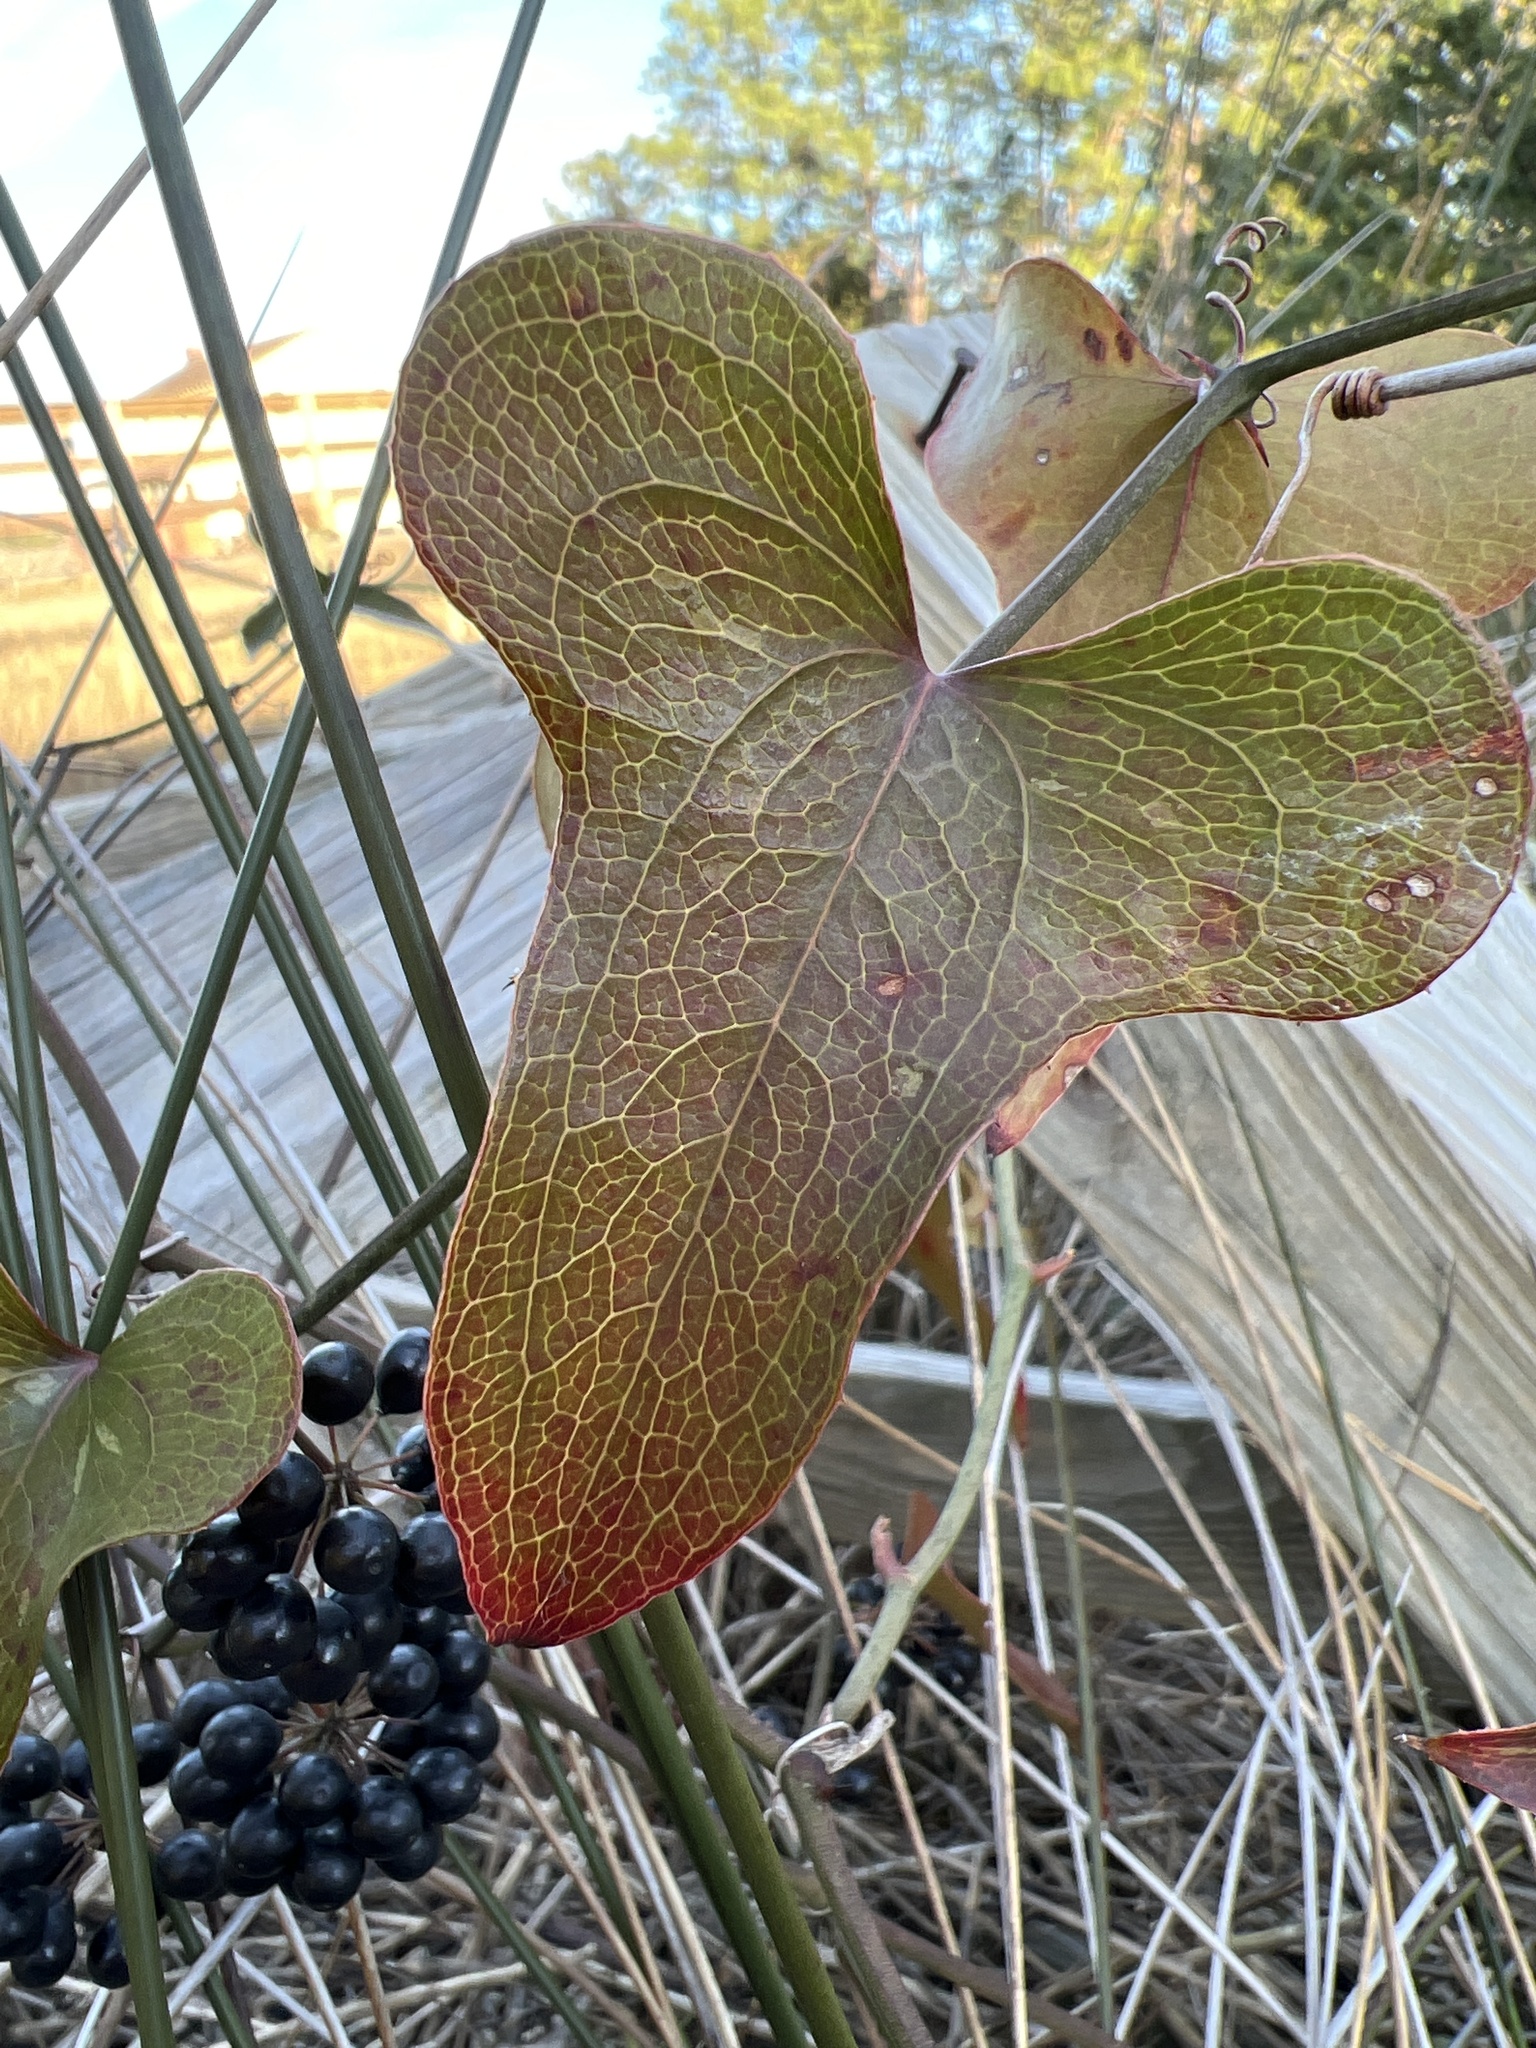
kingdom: Plantae
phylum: Tracheophyta
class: Liliopsida
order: Liliales
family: Smilacaceae
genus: Smilax
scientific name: Smilax bona-nox
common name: Catbrier
